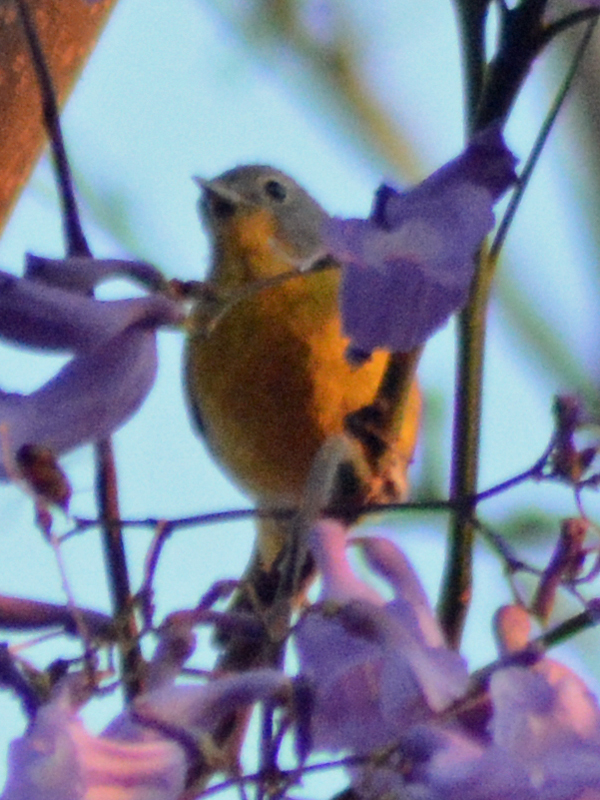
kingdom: Animalia
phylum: Chordata
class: Aves
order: Passeriformes
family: Parulidae
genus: Leiothlypis
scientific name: Leiothlypis ruficapilla
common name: Nashville warbler
